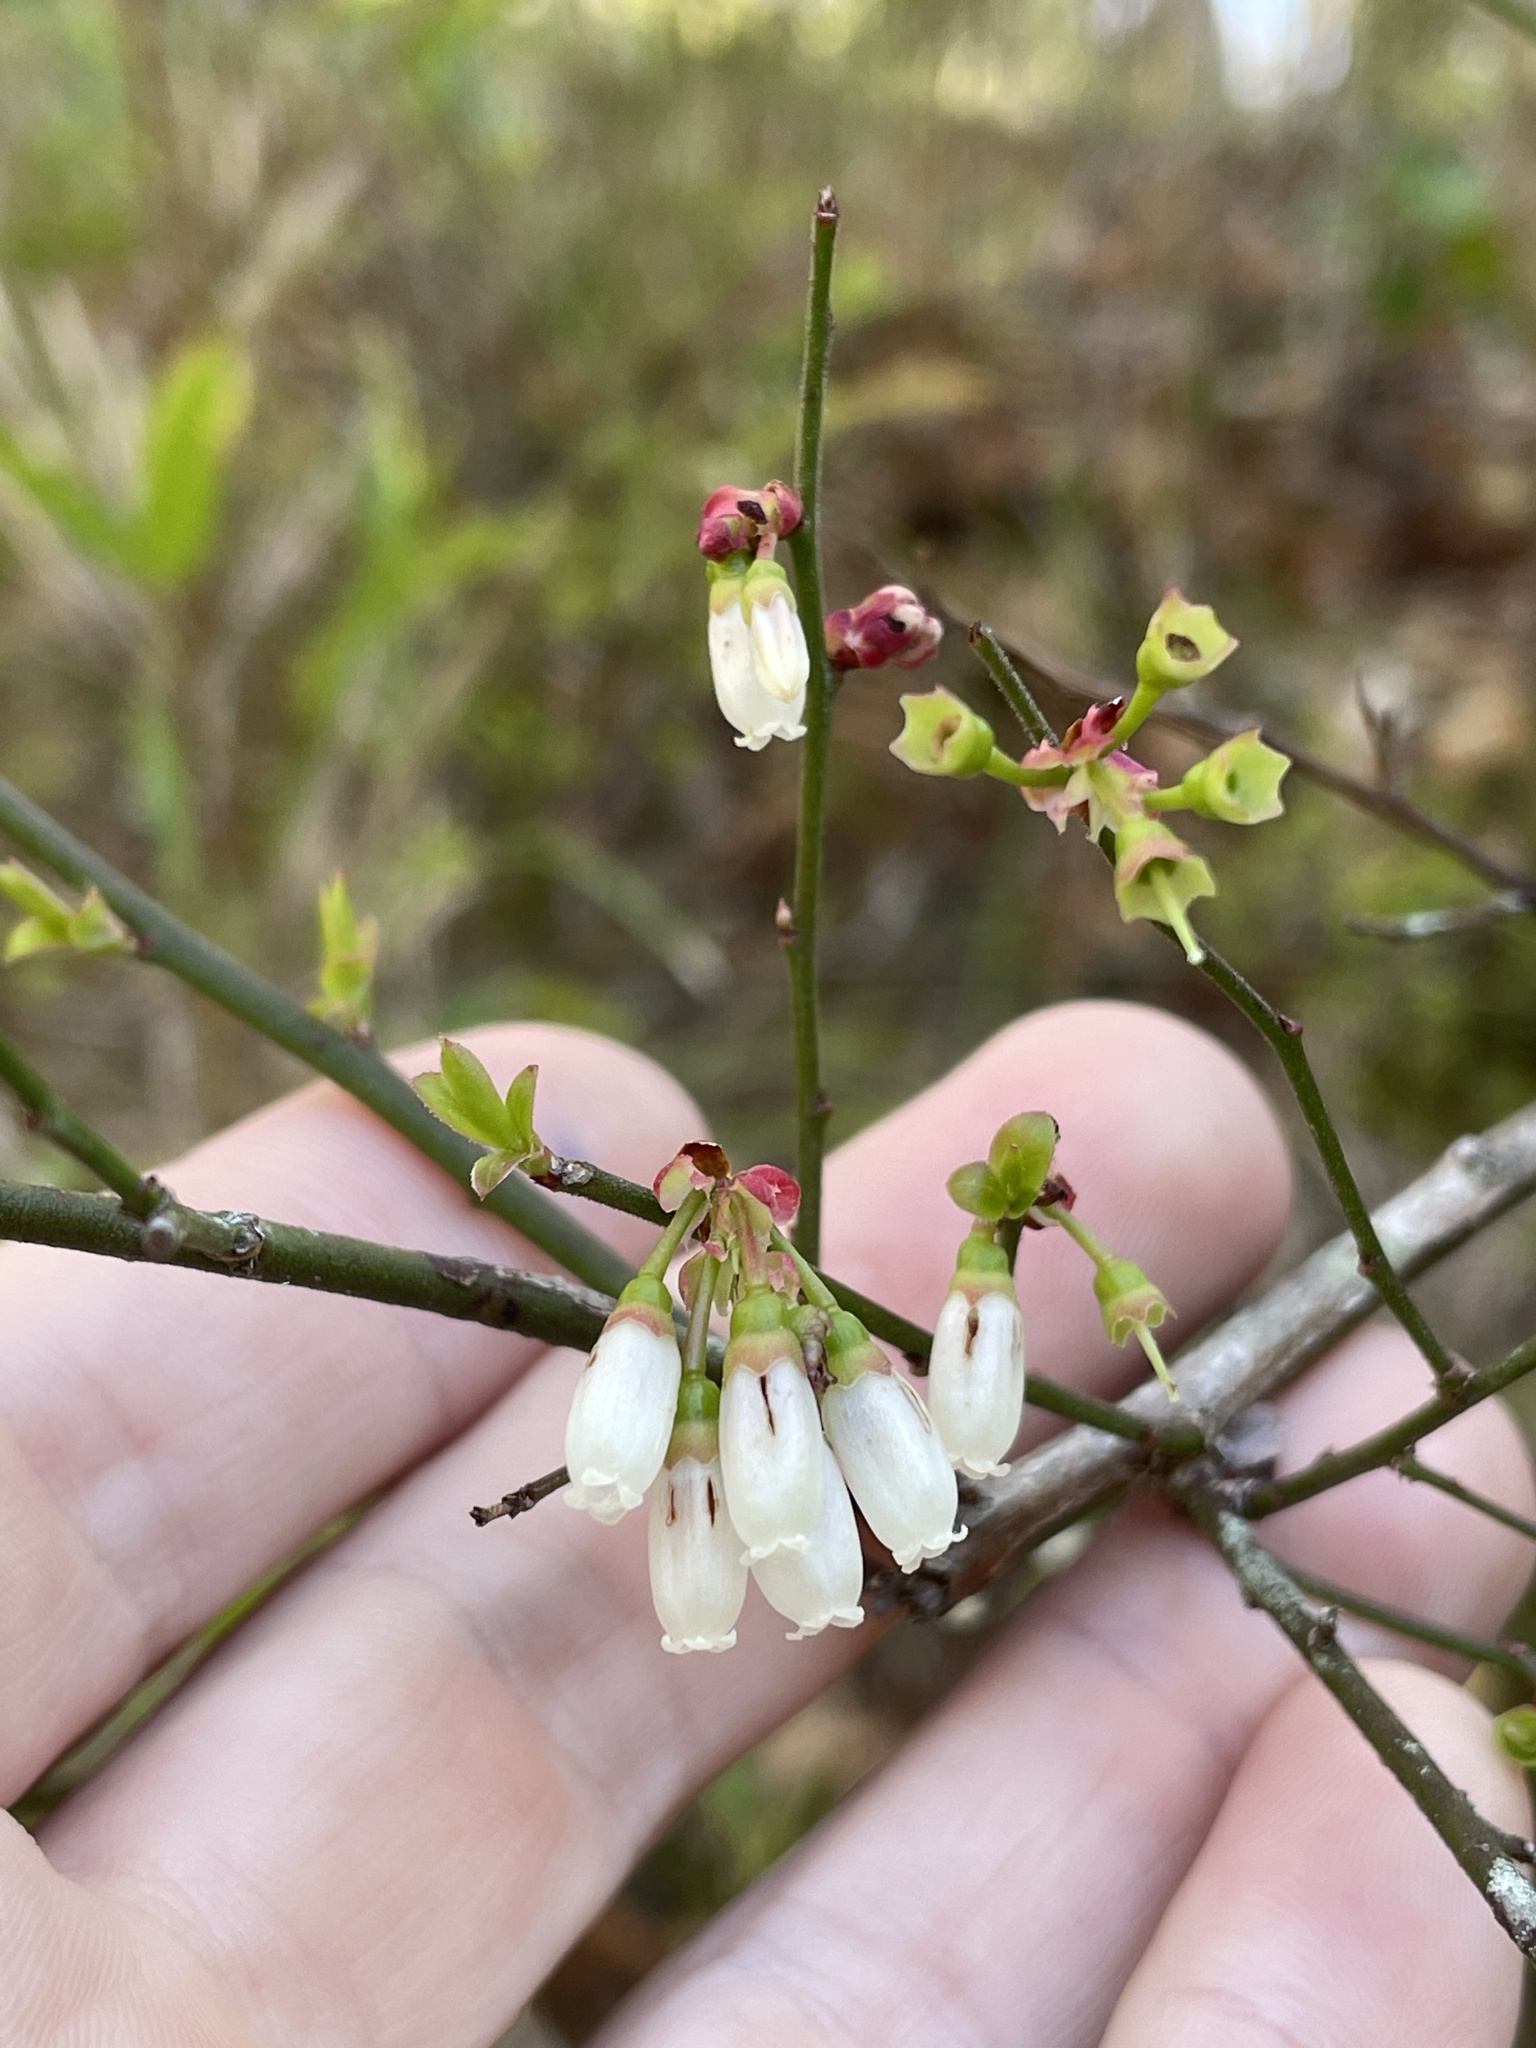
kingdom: Plantae
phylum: Tracheophyta
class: Magnoliopsida
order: Ericales
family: Ericaceae
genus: Vaccinium
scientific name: Vaccinium corymbosum
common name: Blueberry
